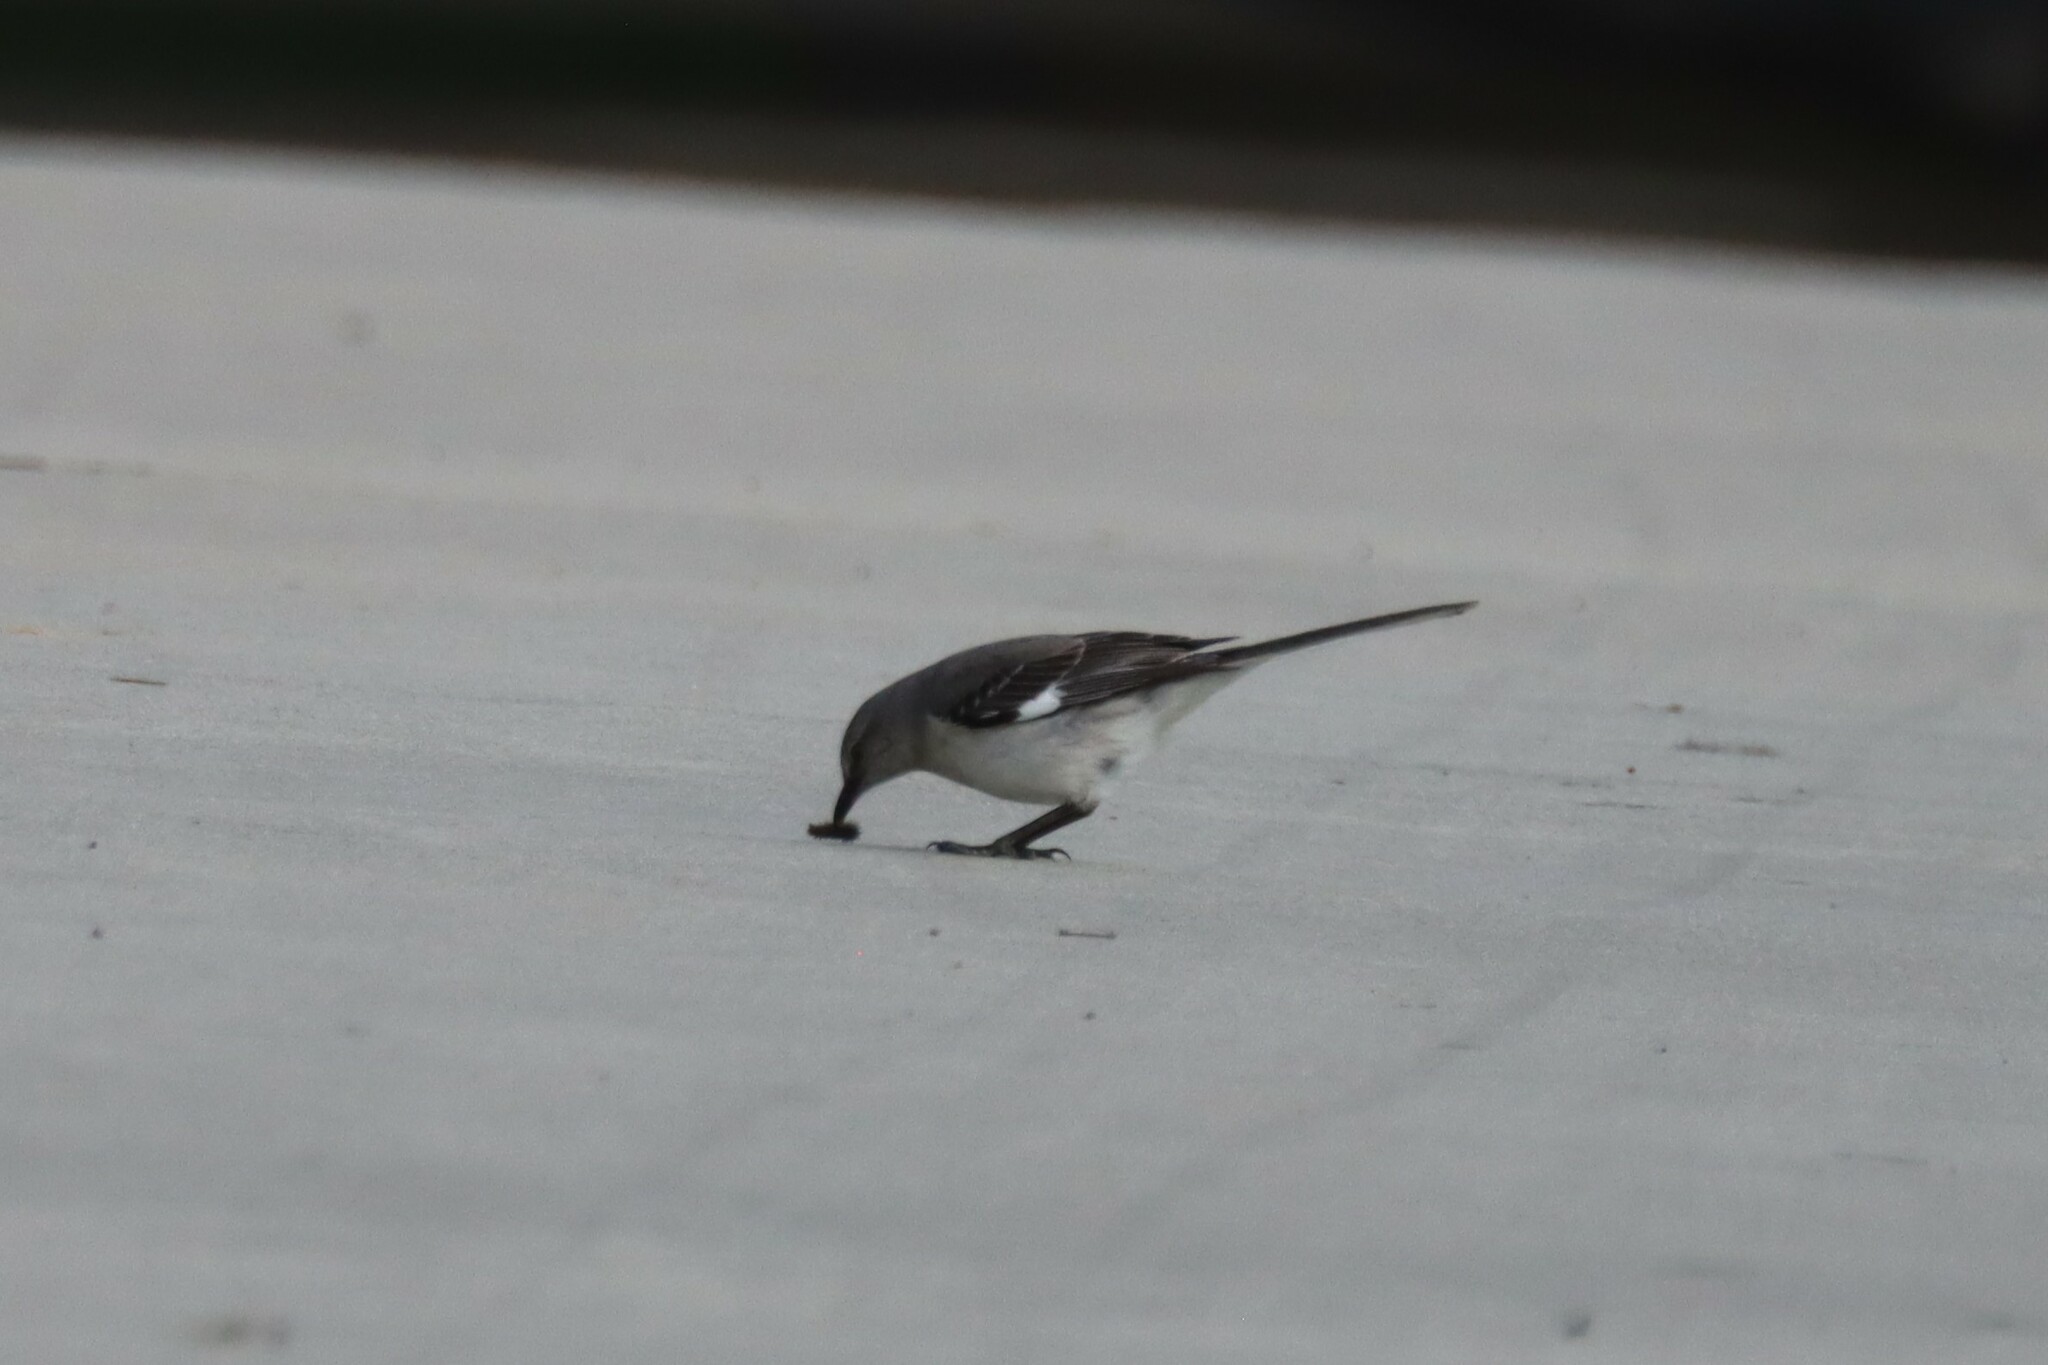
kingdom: Animalia
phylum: Chordata
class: Aves
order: Passeriformes
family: Mimidae
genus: Mimus
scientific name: Mimus polyglottos
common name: Northern mockingbird
